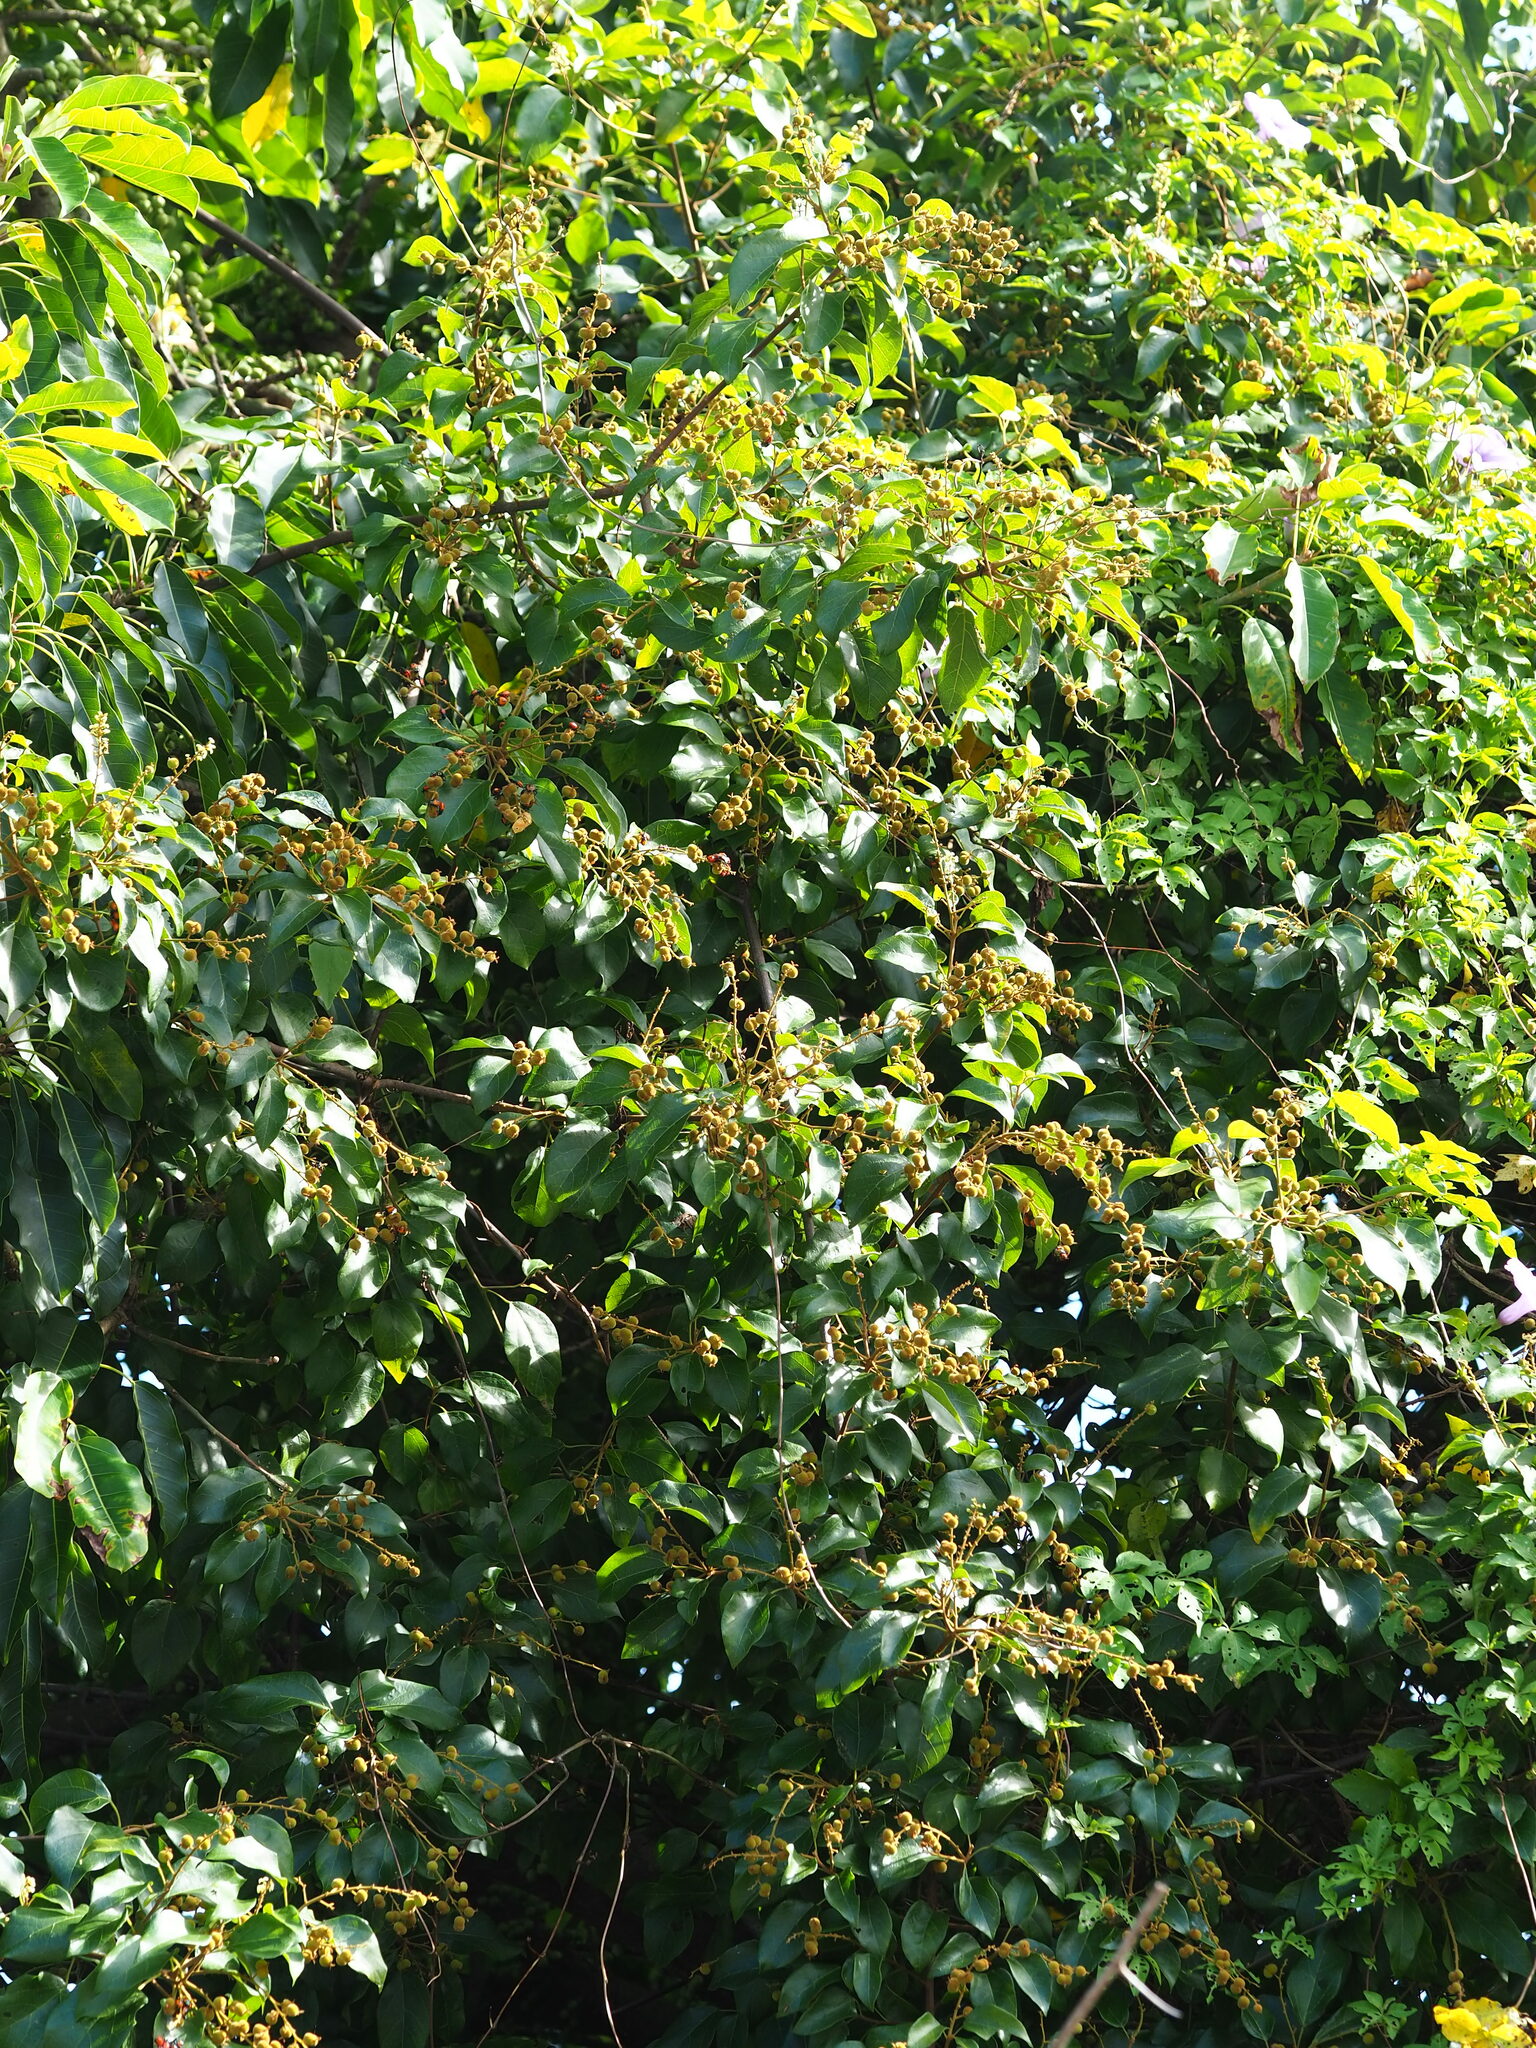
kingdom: Plantae
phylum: Tracheophyta
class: Magnoliopsida
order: Malpighiales
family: Euphorbiaceae
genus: Mallotus
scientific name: Mallotus repandus
